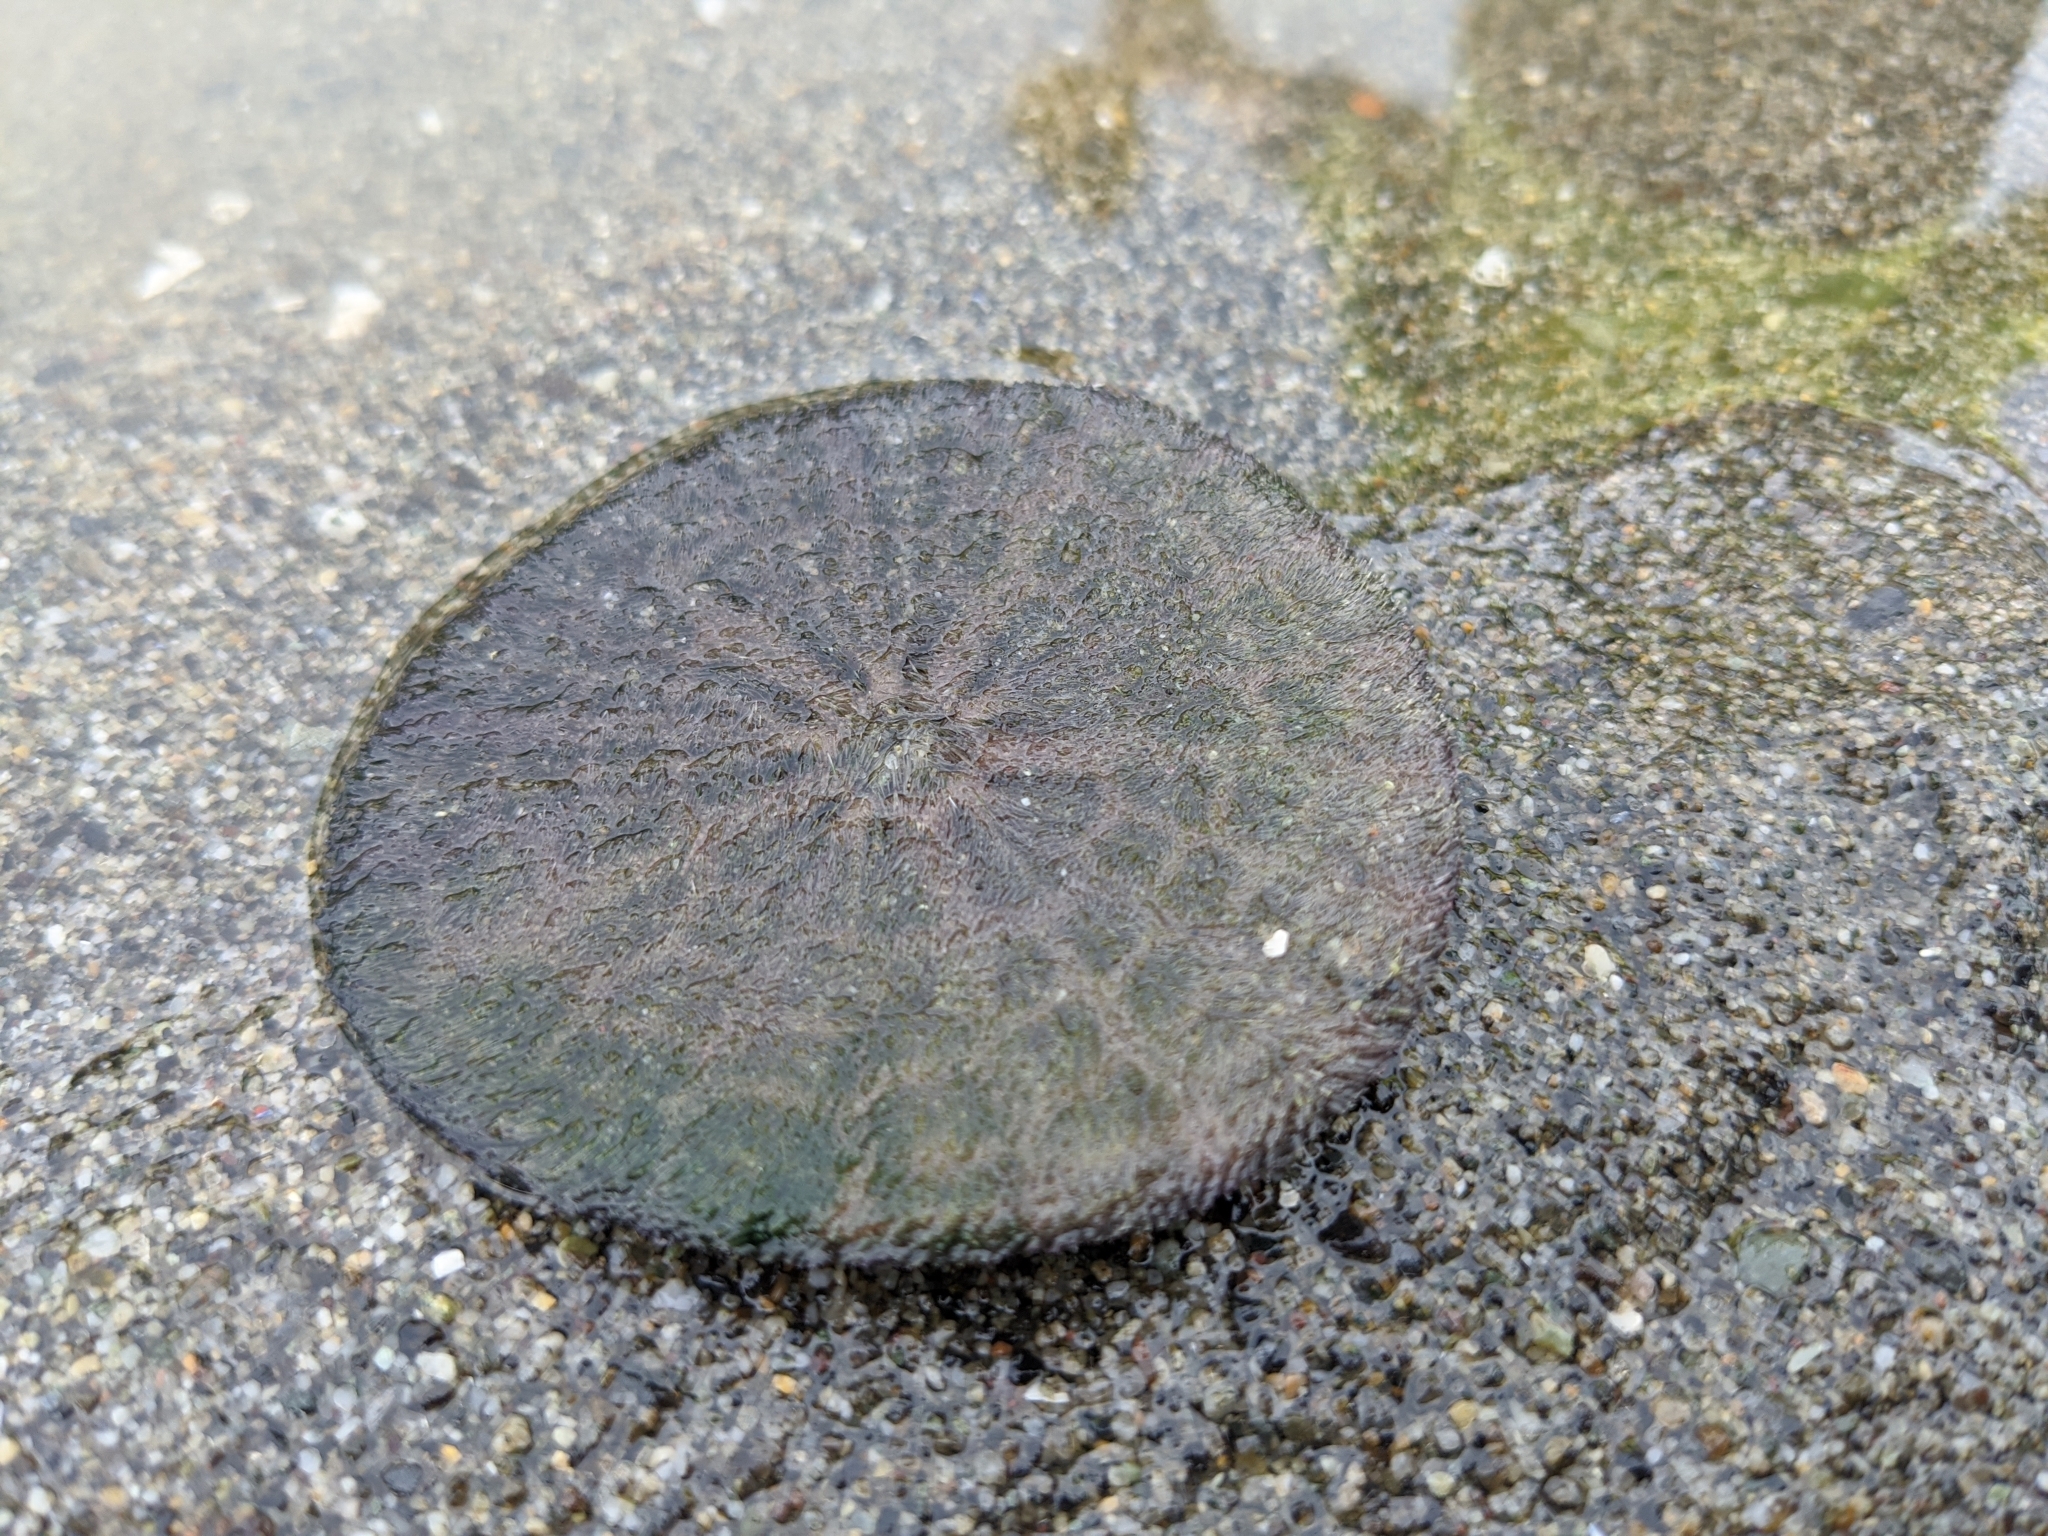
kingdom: Animalia
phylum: Echinodermata
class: Echinoidea
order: Echinolampadacea
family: Dendrasteridae
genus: Dendraster
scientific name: Dendraster excentricus
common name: Eccentric sand dollar sea urchin
